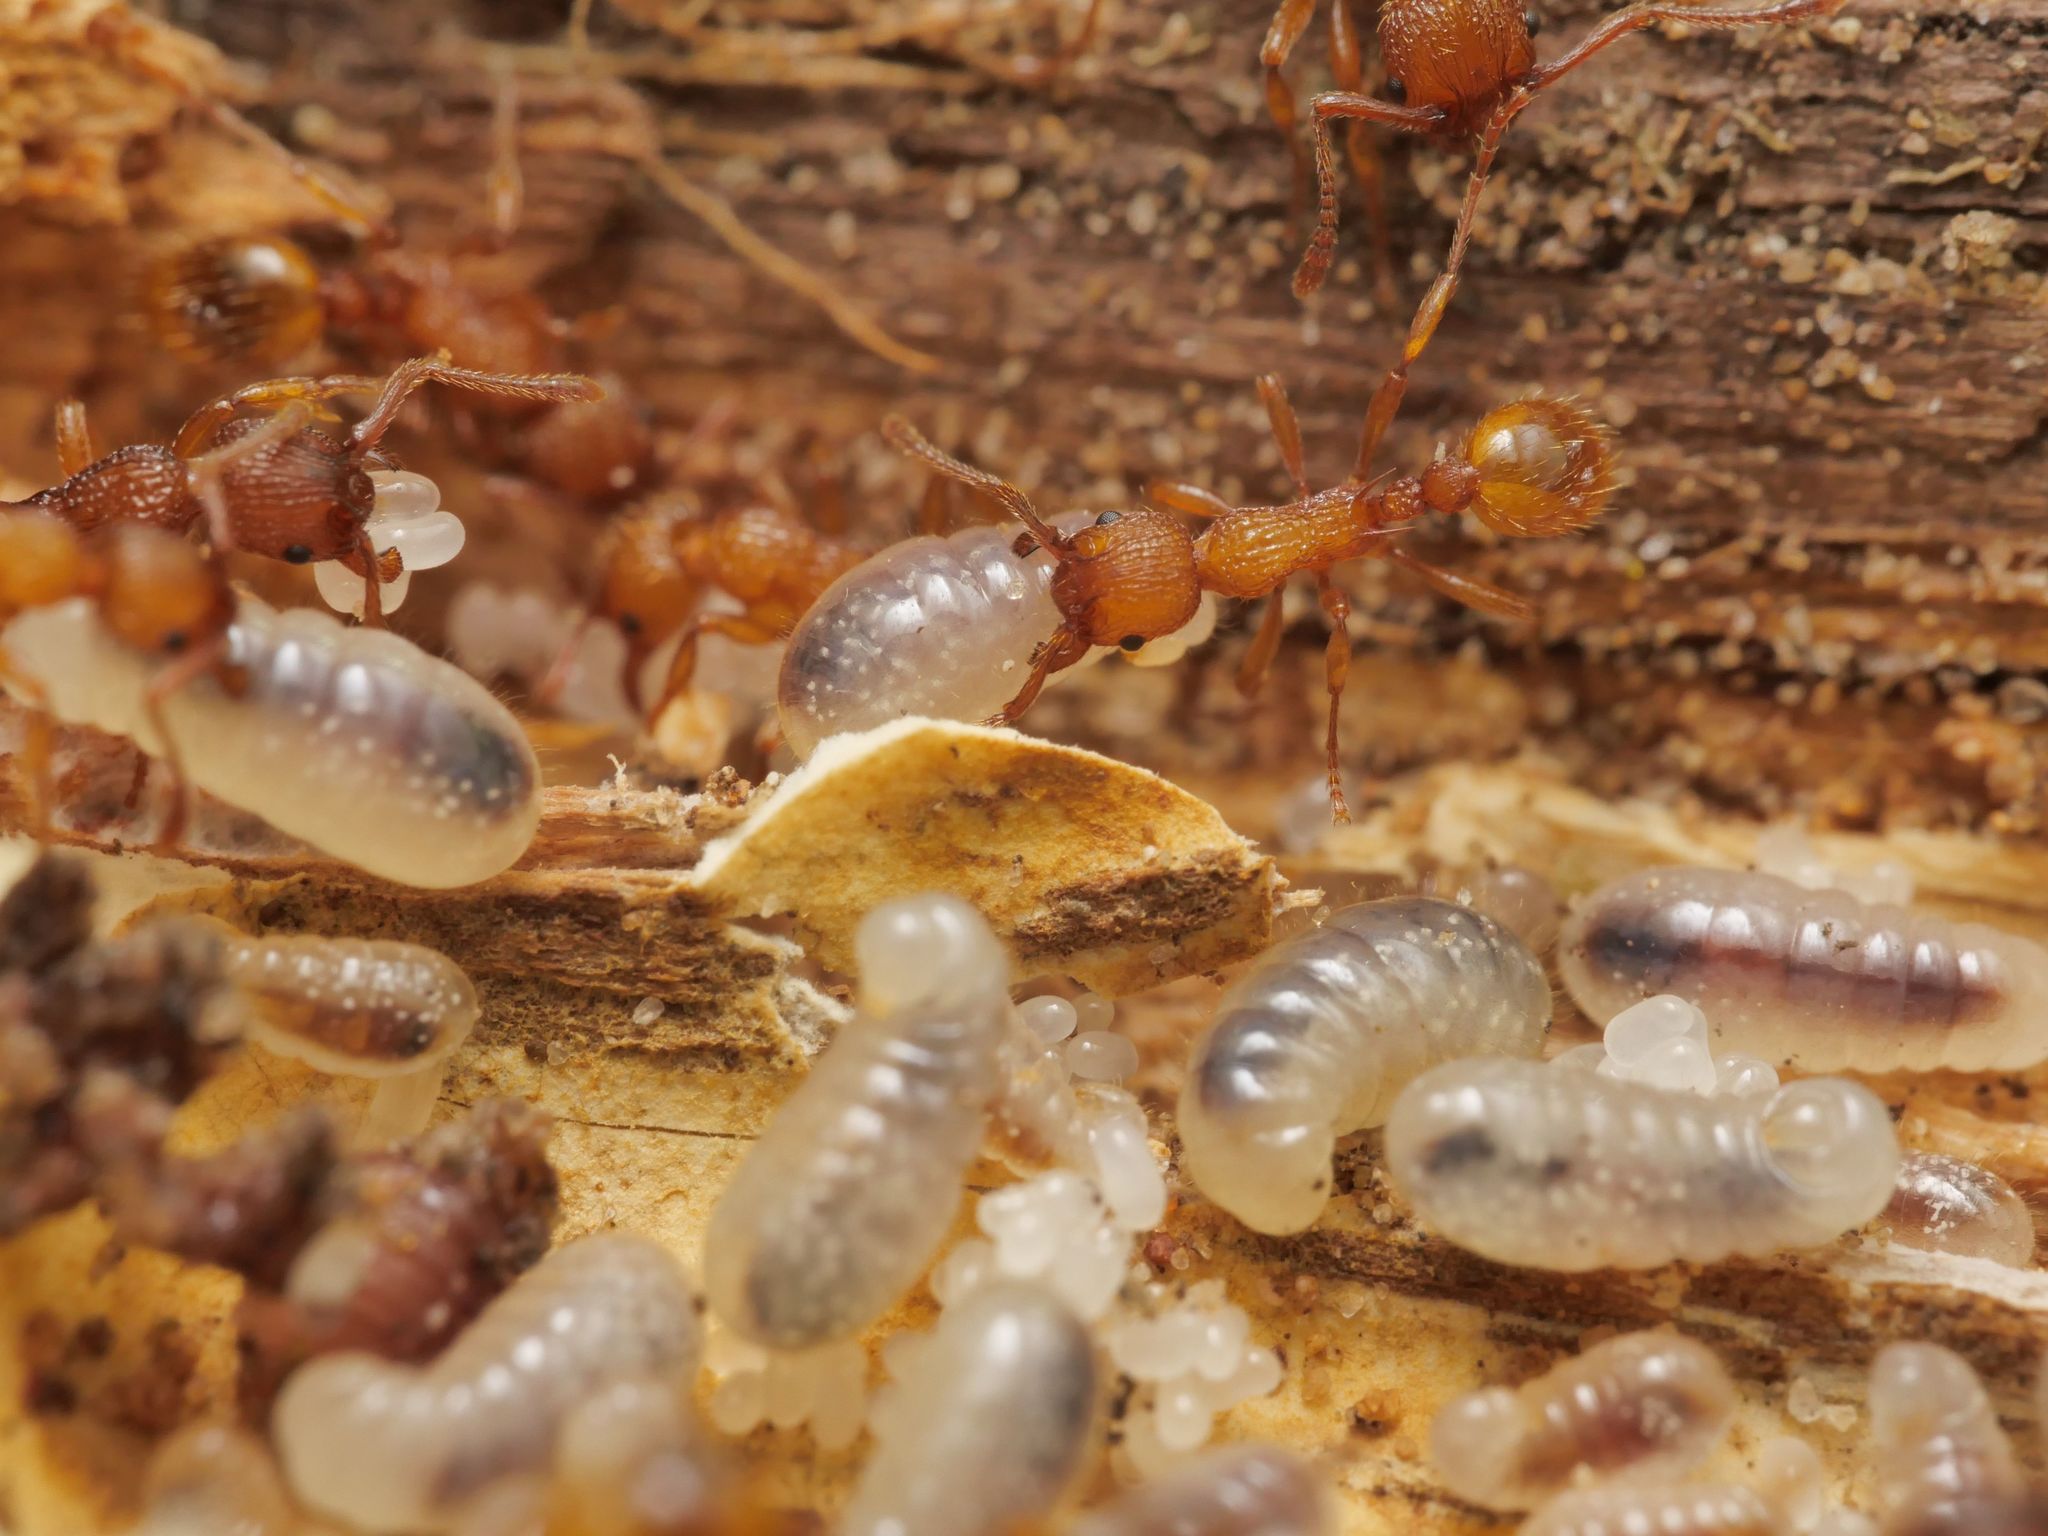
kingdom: Animalia
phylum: Arthropoda
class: Insecta
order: Hymenoptera
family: Formicidae
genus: Myrmica
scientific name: Myrmica sabuleti
